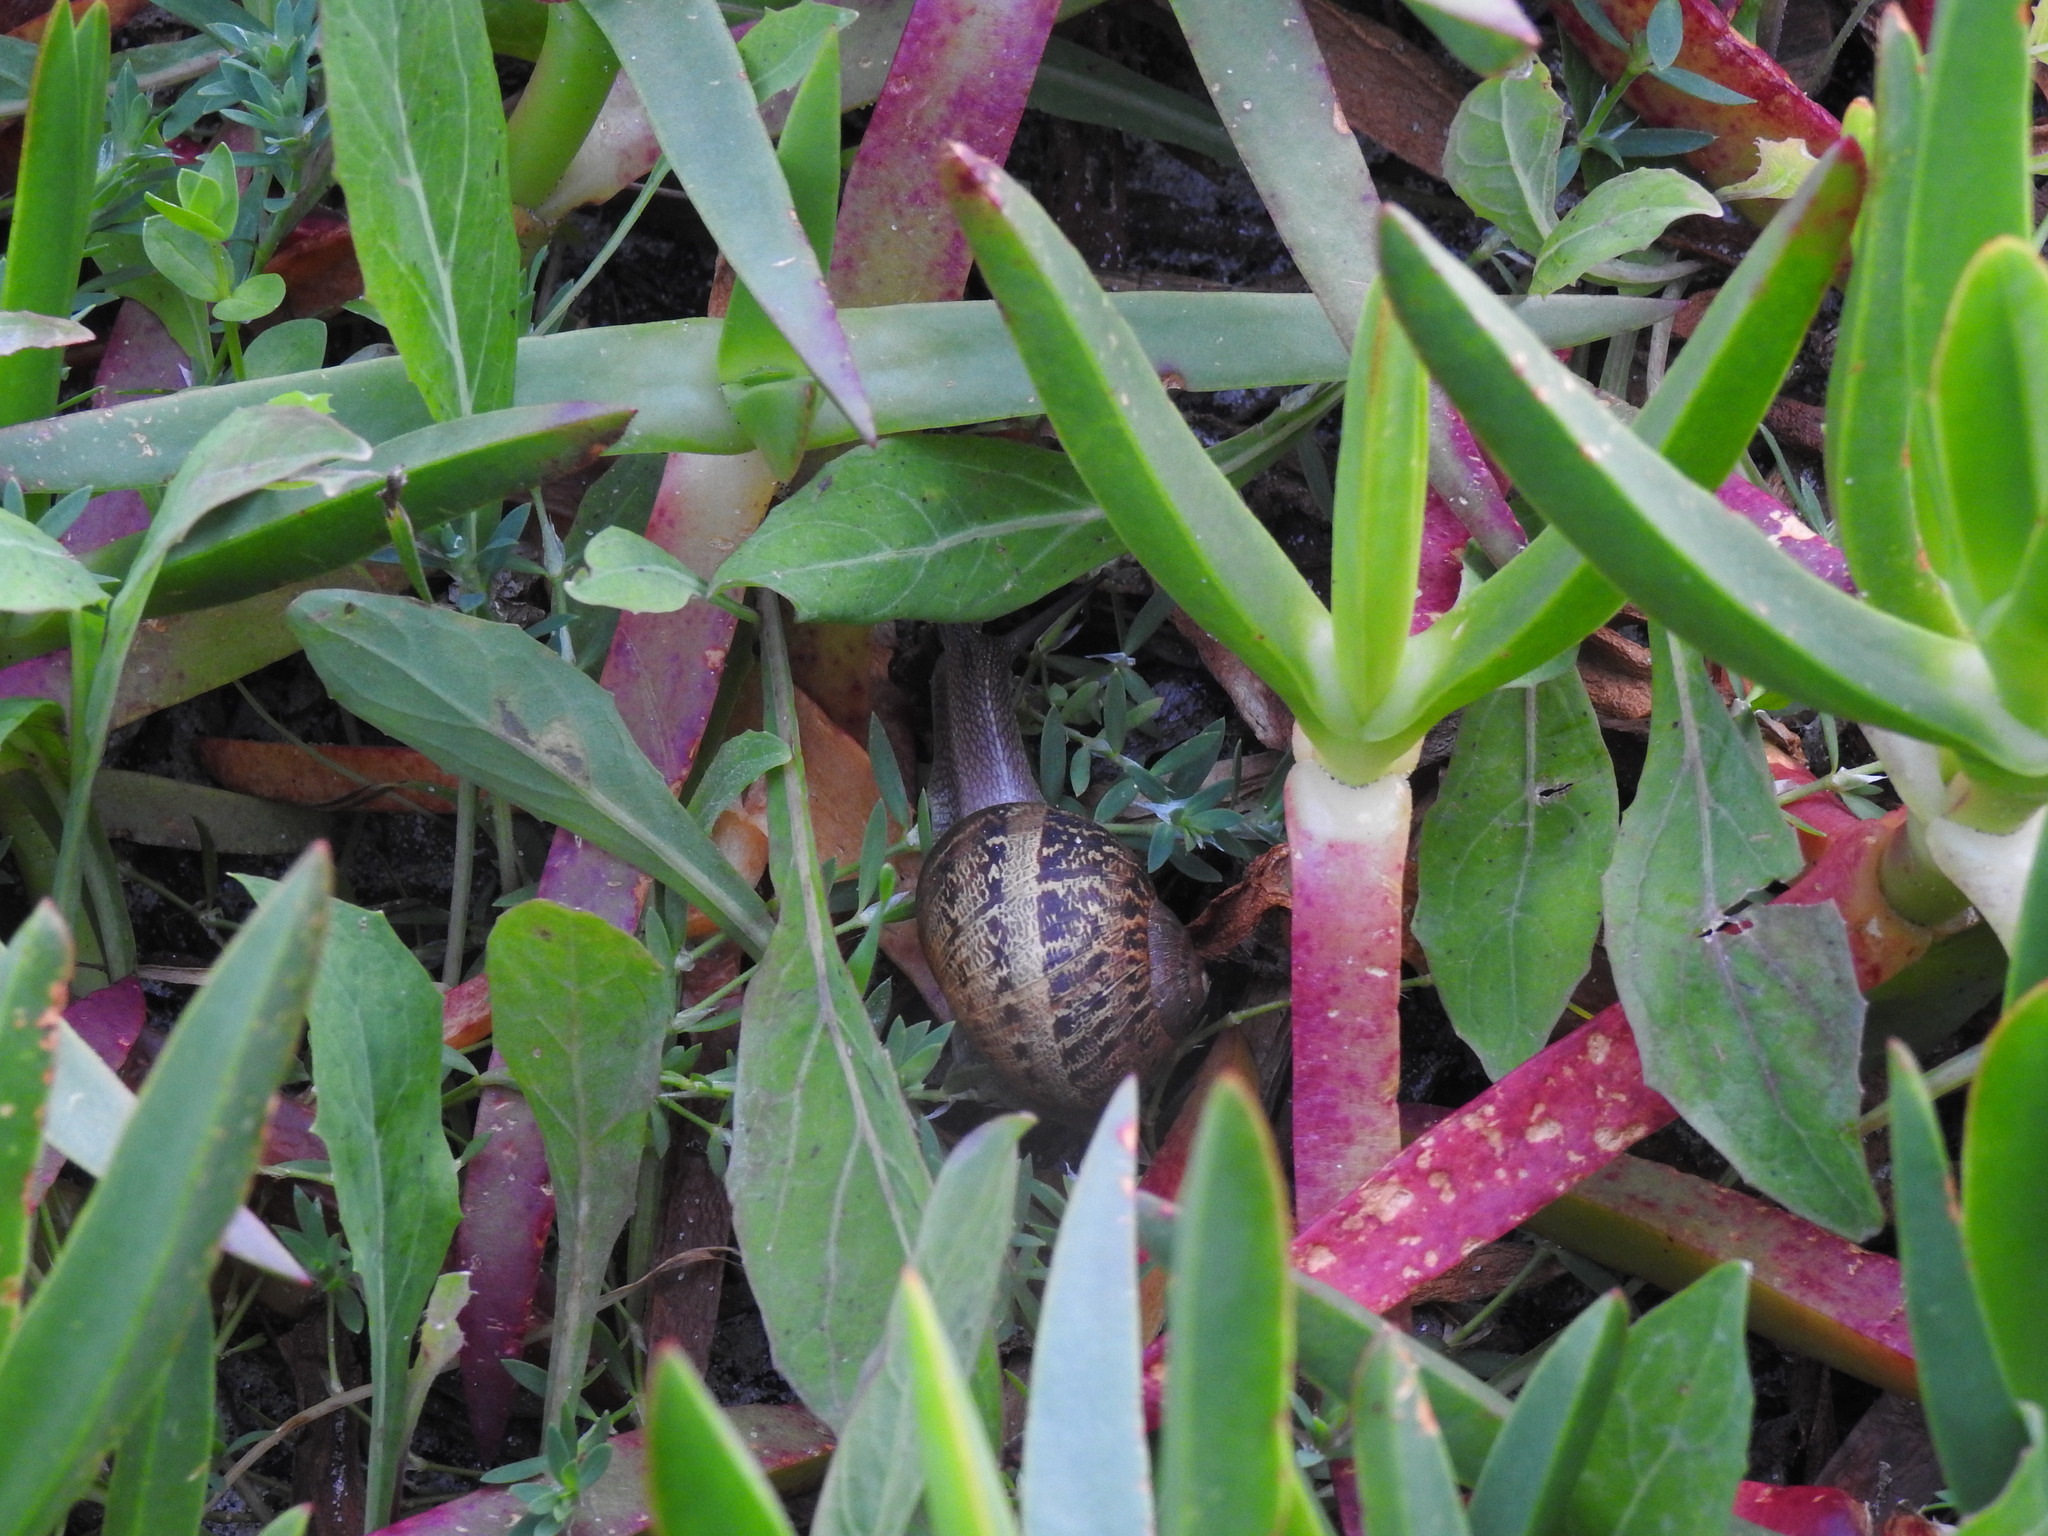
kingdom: Animalia
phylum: Mollusca
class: Gastropoda
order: Stylommatophora
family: Helicidae
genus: Cornu
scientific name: Cornu aspersum
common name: Brown garden snail
